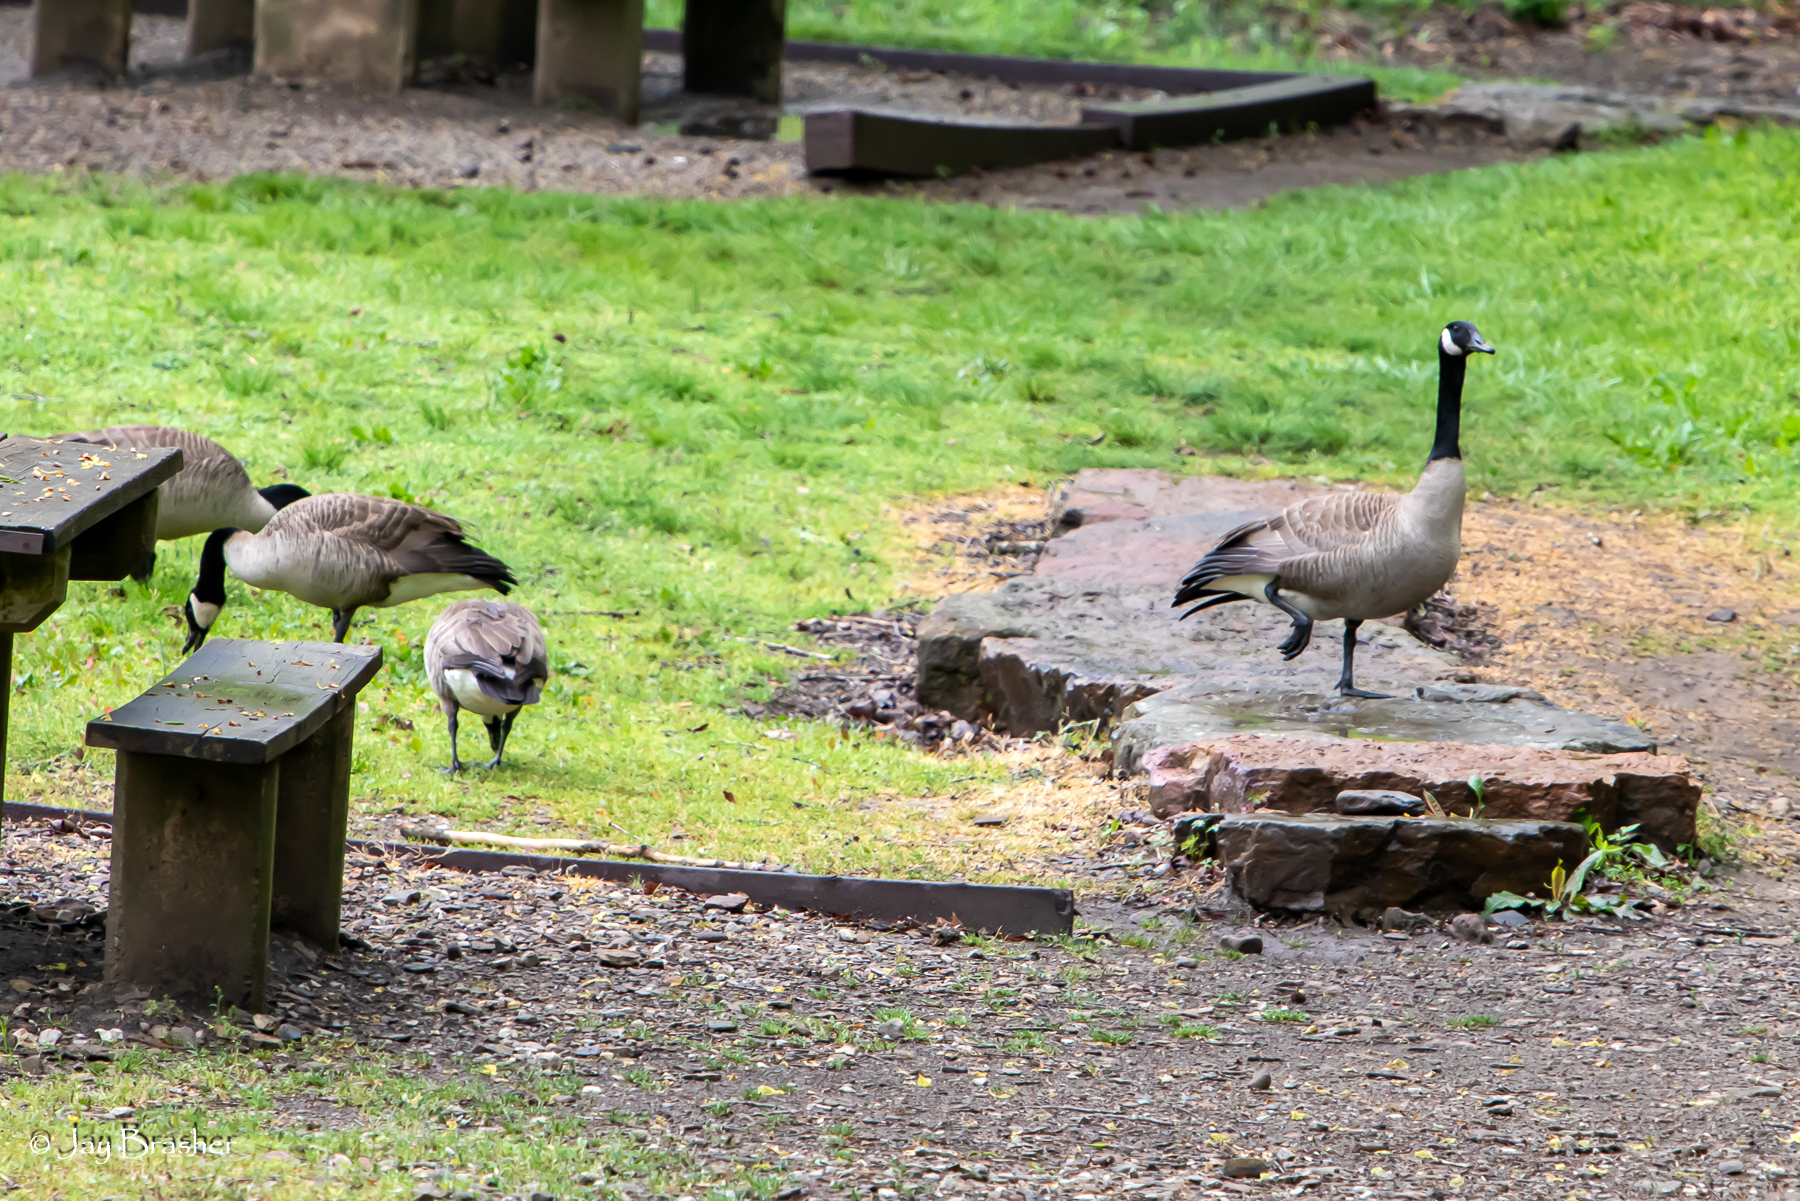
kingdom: Animalia
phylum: Chordata
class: Aves
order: Anseriformes
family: Anatidae
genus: Branta
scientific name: Branta canadensis
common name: Canada goose
